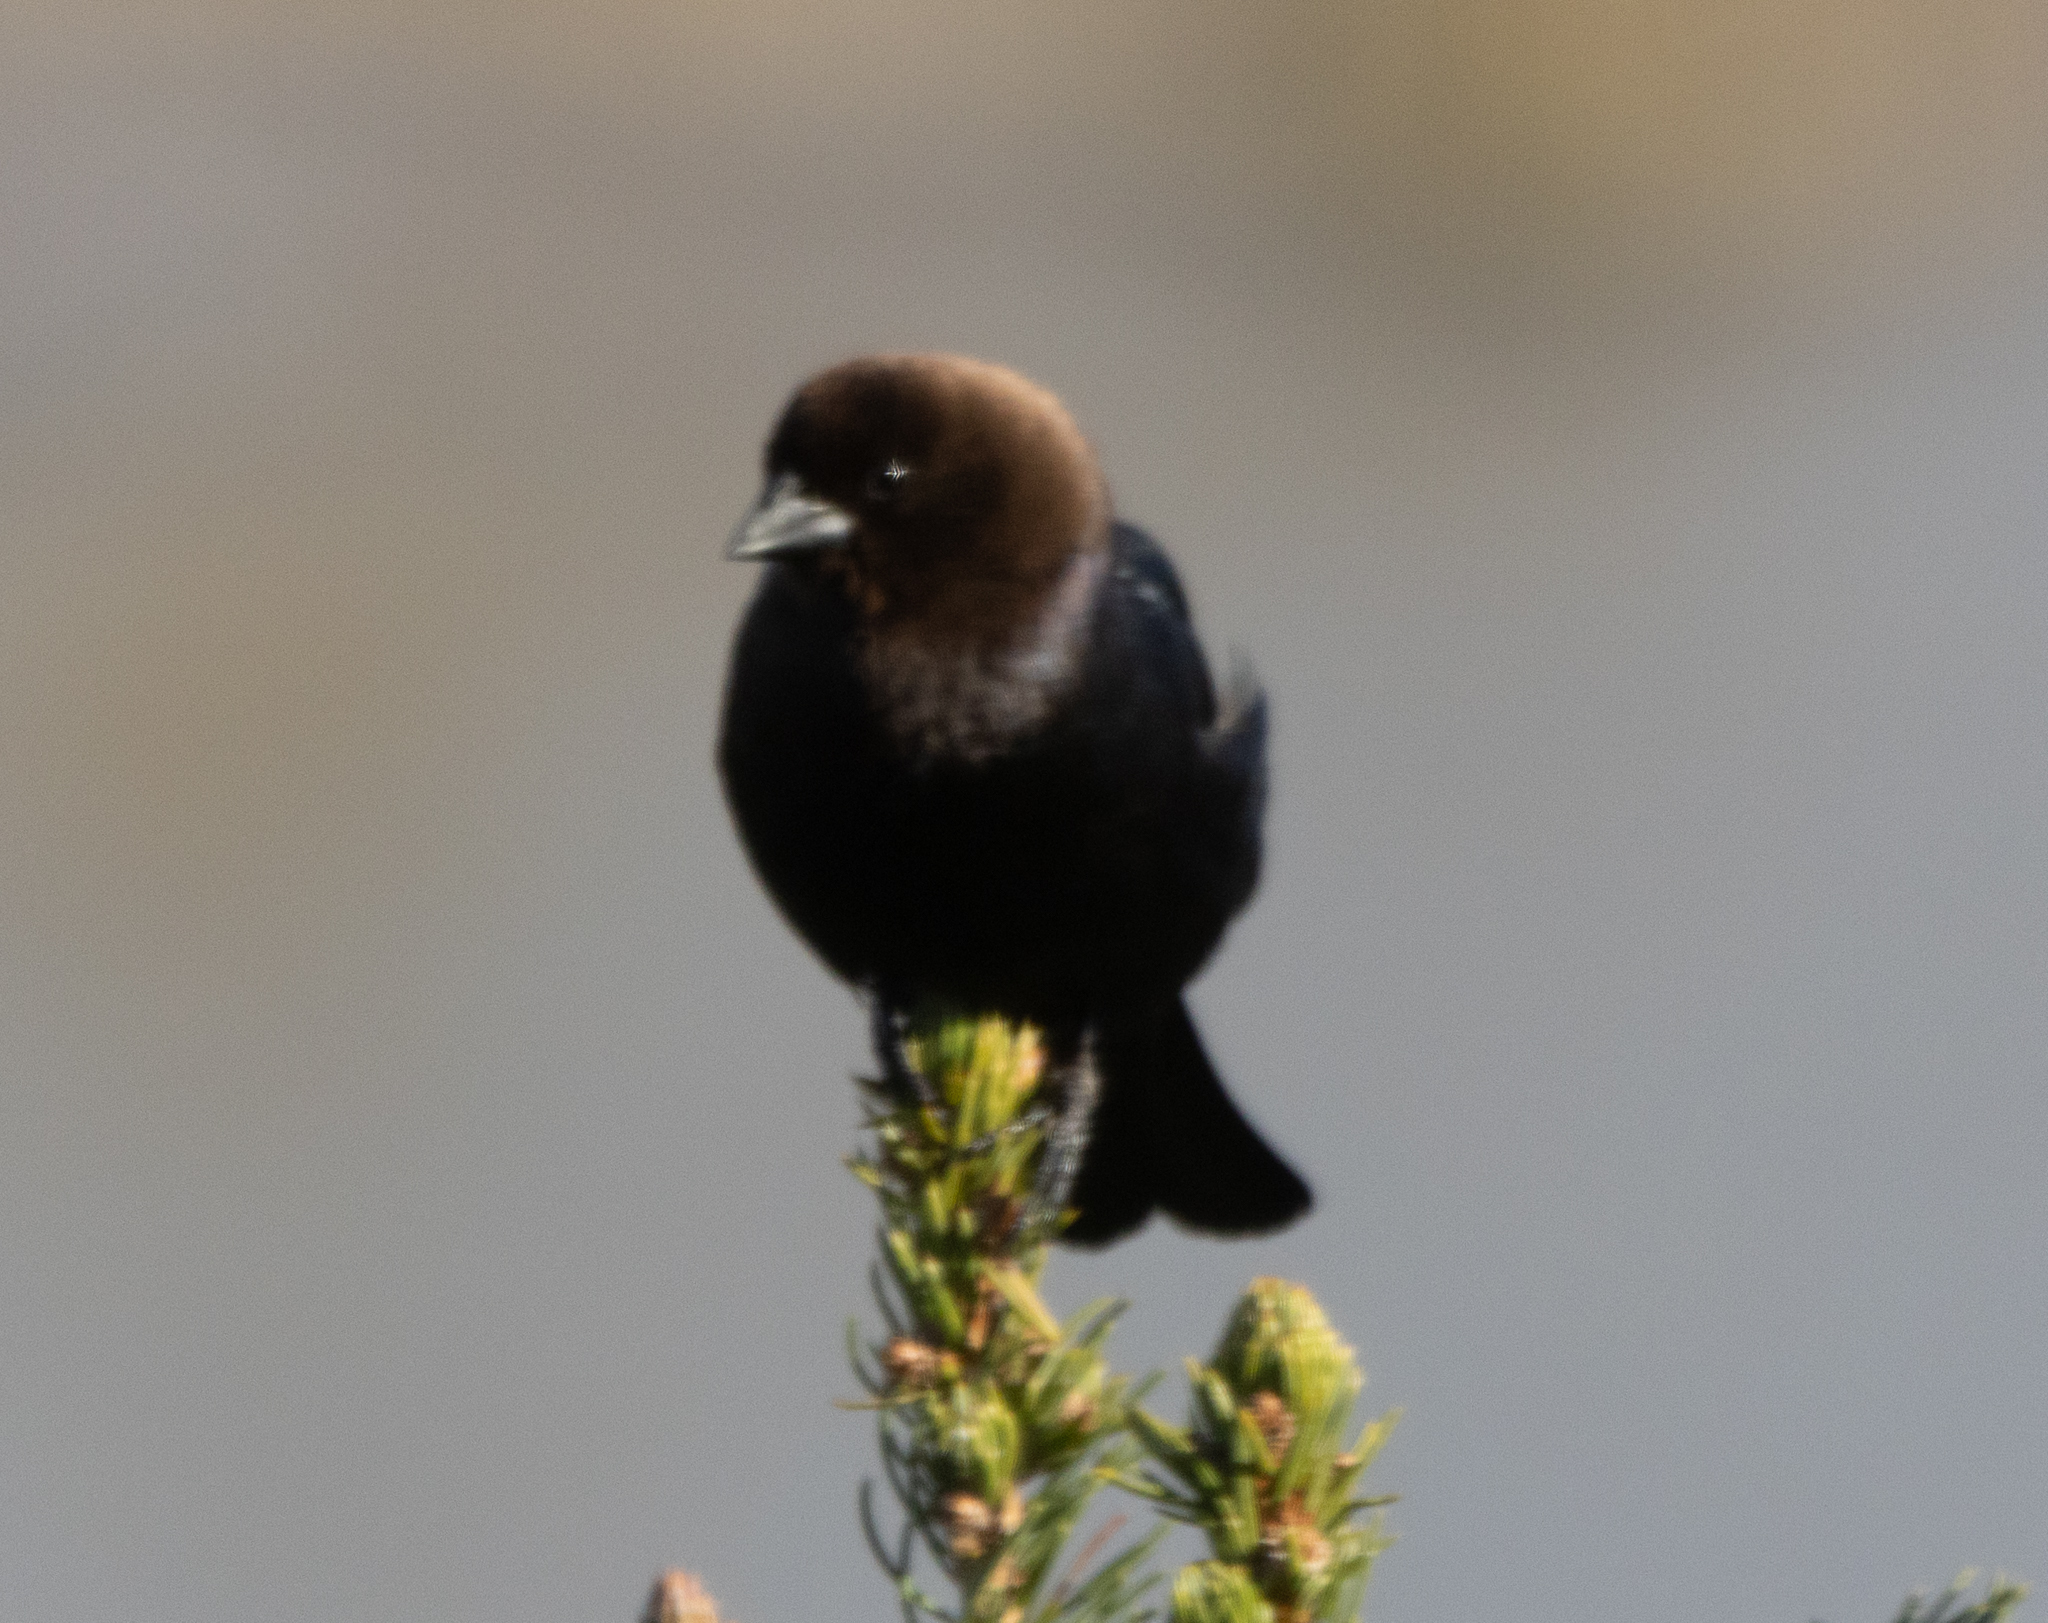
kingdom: Animalia
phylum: Chordata
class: Aves
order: Passeriformes
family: Icteridae
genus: Molothrus
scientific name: Molothrus ater
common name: Brown-headed cowbird
